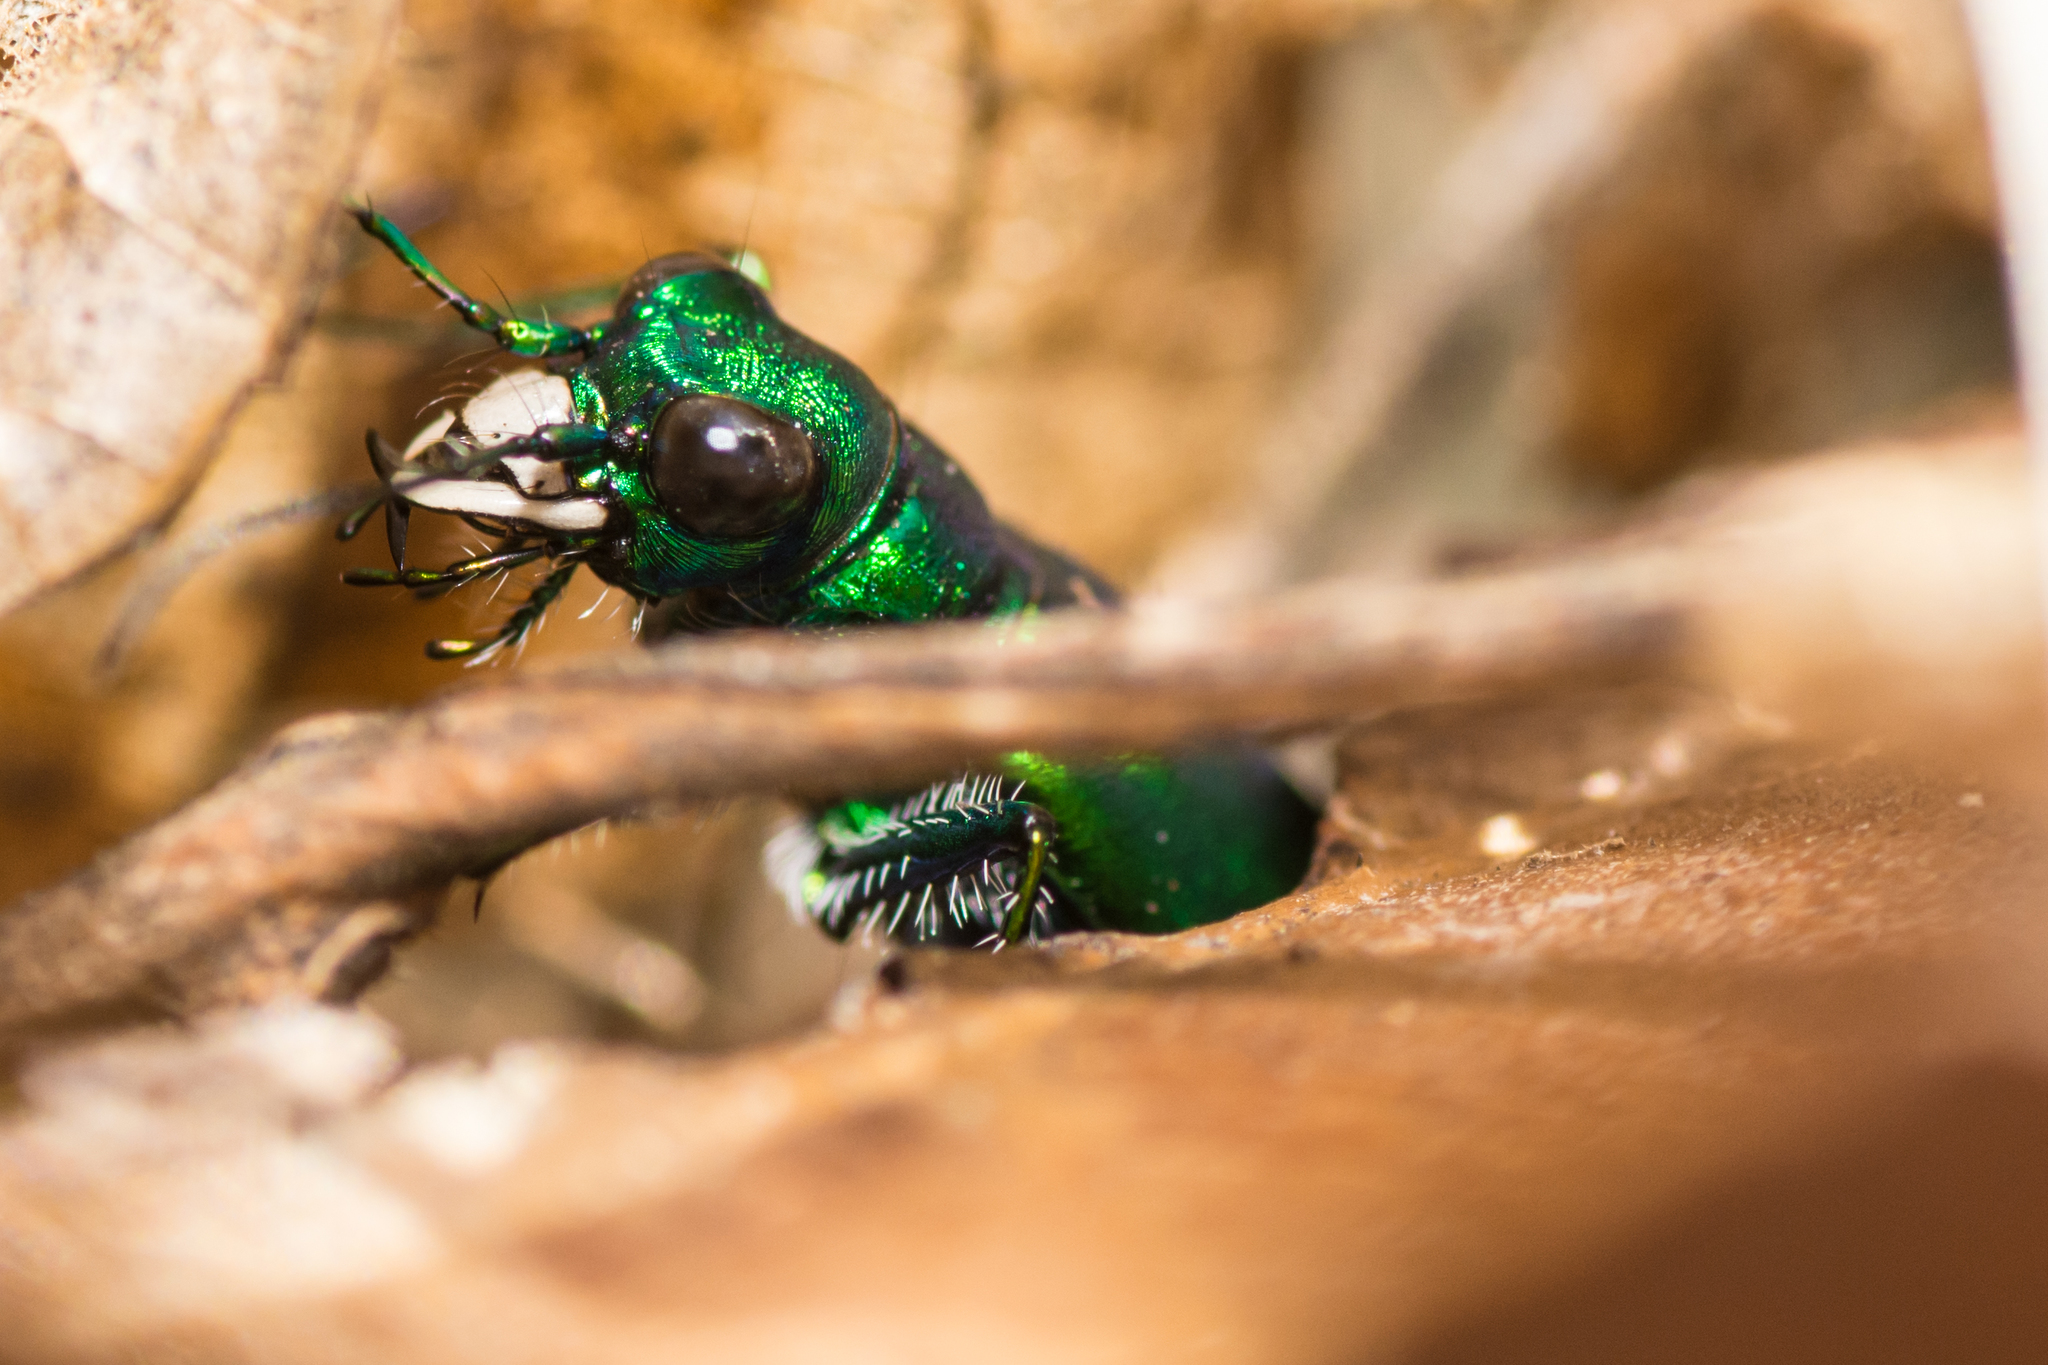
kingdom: Animalia
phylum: Arthropoda
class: Insecta
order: Coleoptera
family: Carabidae
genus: Cicindela
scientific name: Cicindela sexguttata
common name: Six-spotted tiger beetle
